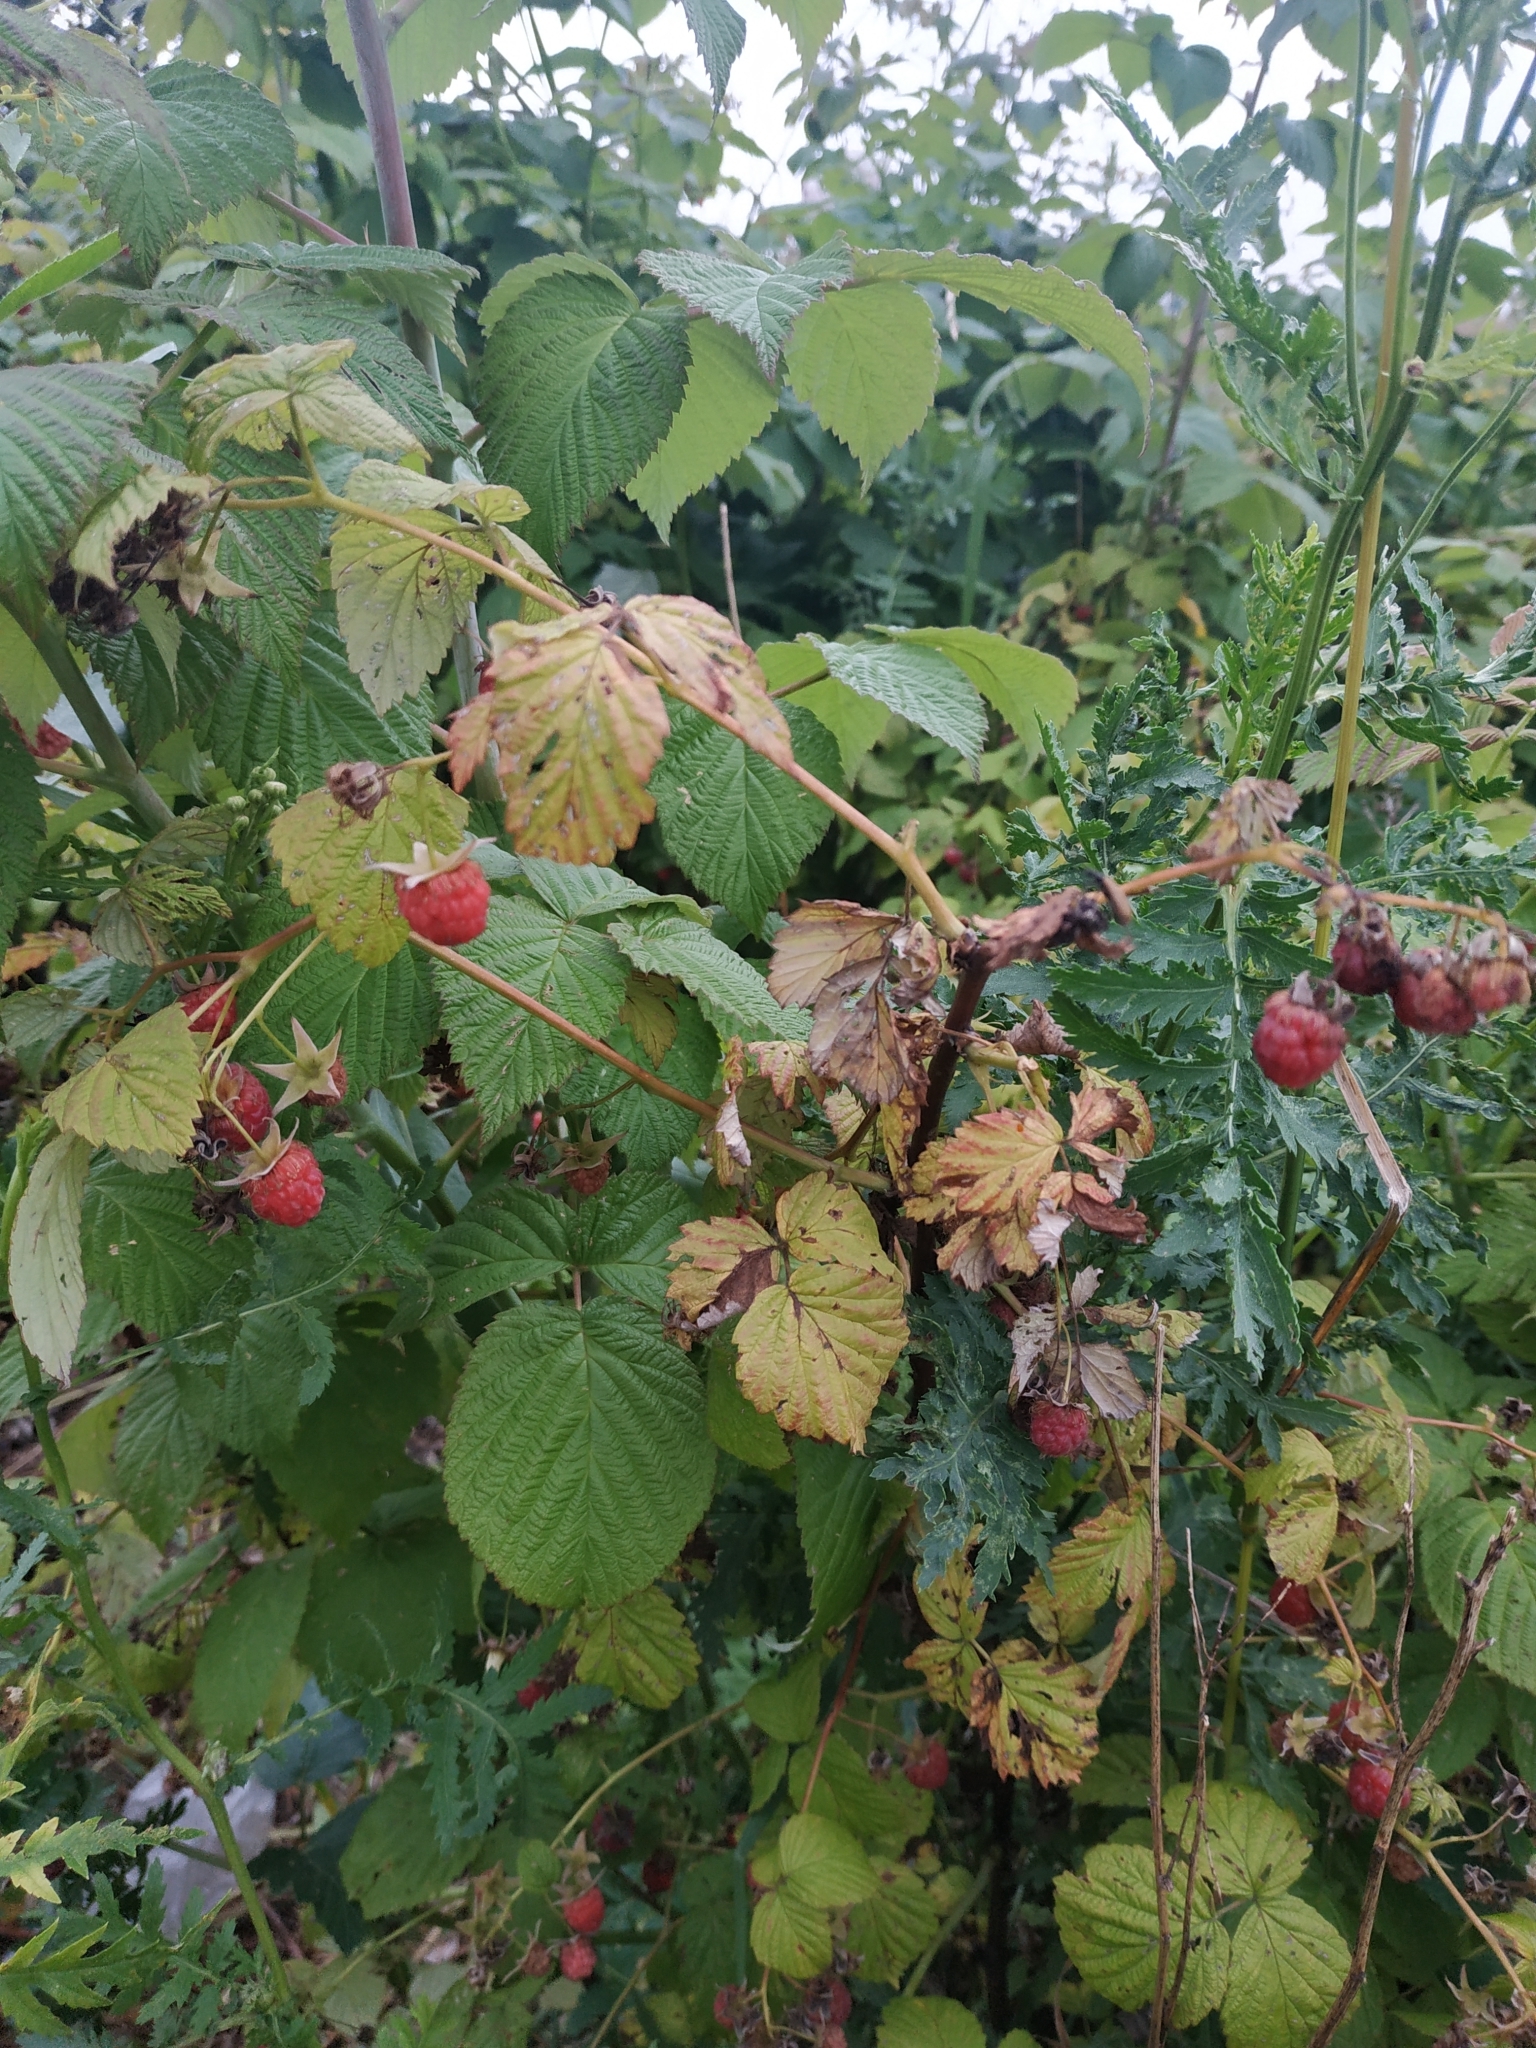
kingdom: Plantae
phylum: Tracheophyta
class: Magnoliopsida
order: Rosales
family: Rosaceae
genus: Rubus
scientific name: Rubus idaeus
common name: Raspberry
